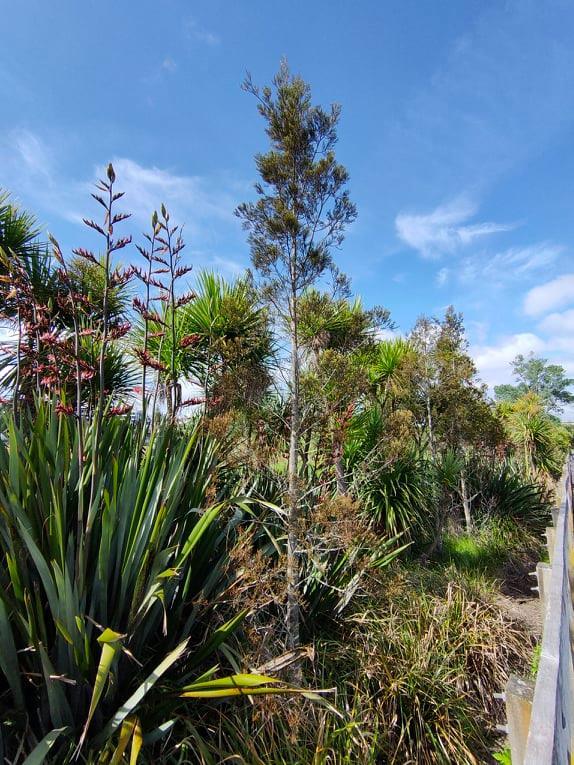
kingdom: Plantae
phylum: Tracheophyta
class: Pinopsida
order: Pinales
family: Podocarpaceae
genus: Dacrycarpus
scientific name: Dacrycarpus dacrydioides
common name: White pine
